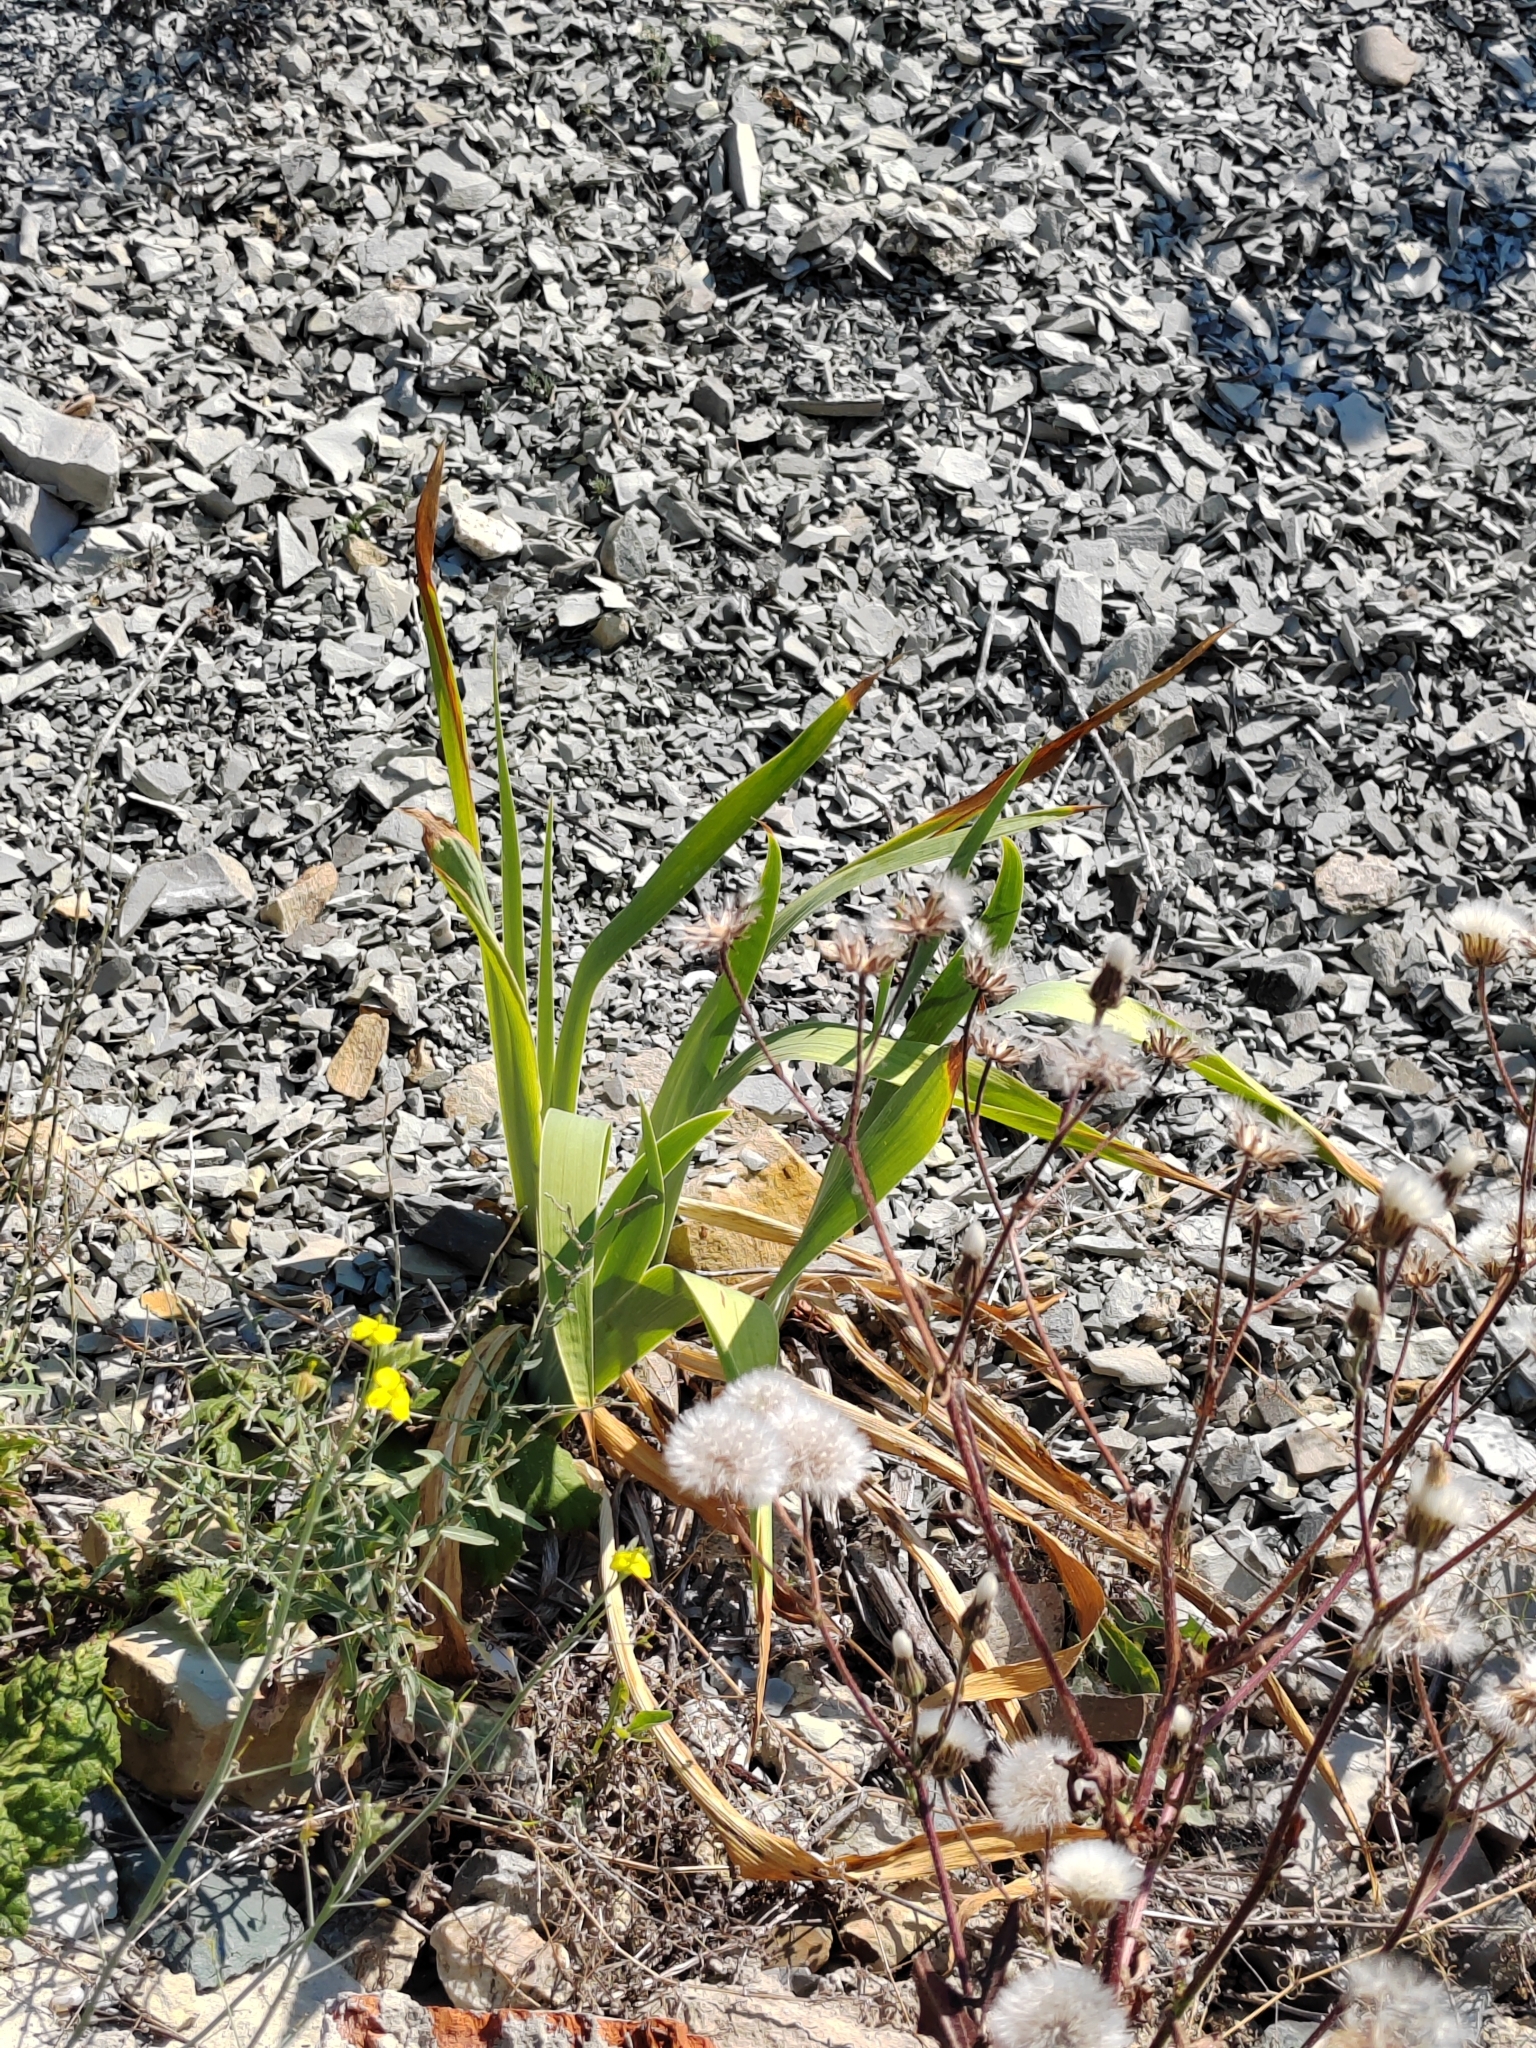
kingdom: Plantae
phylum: Tracheophyta
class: Liliopsida
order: Asparagales
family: Iridaceae
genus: Iris
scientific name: Iris pumila
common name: Dwarf iris
